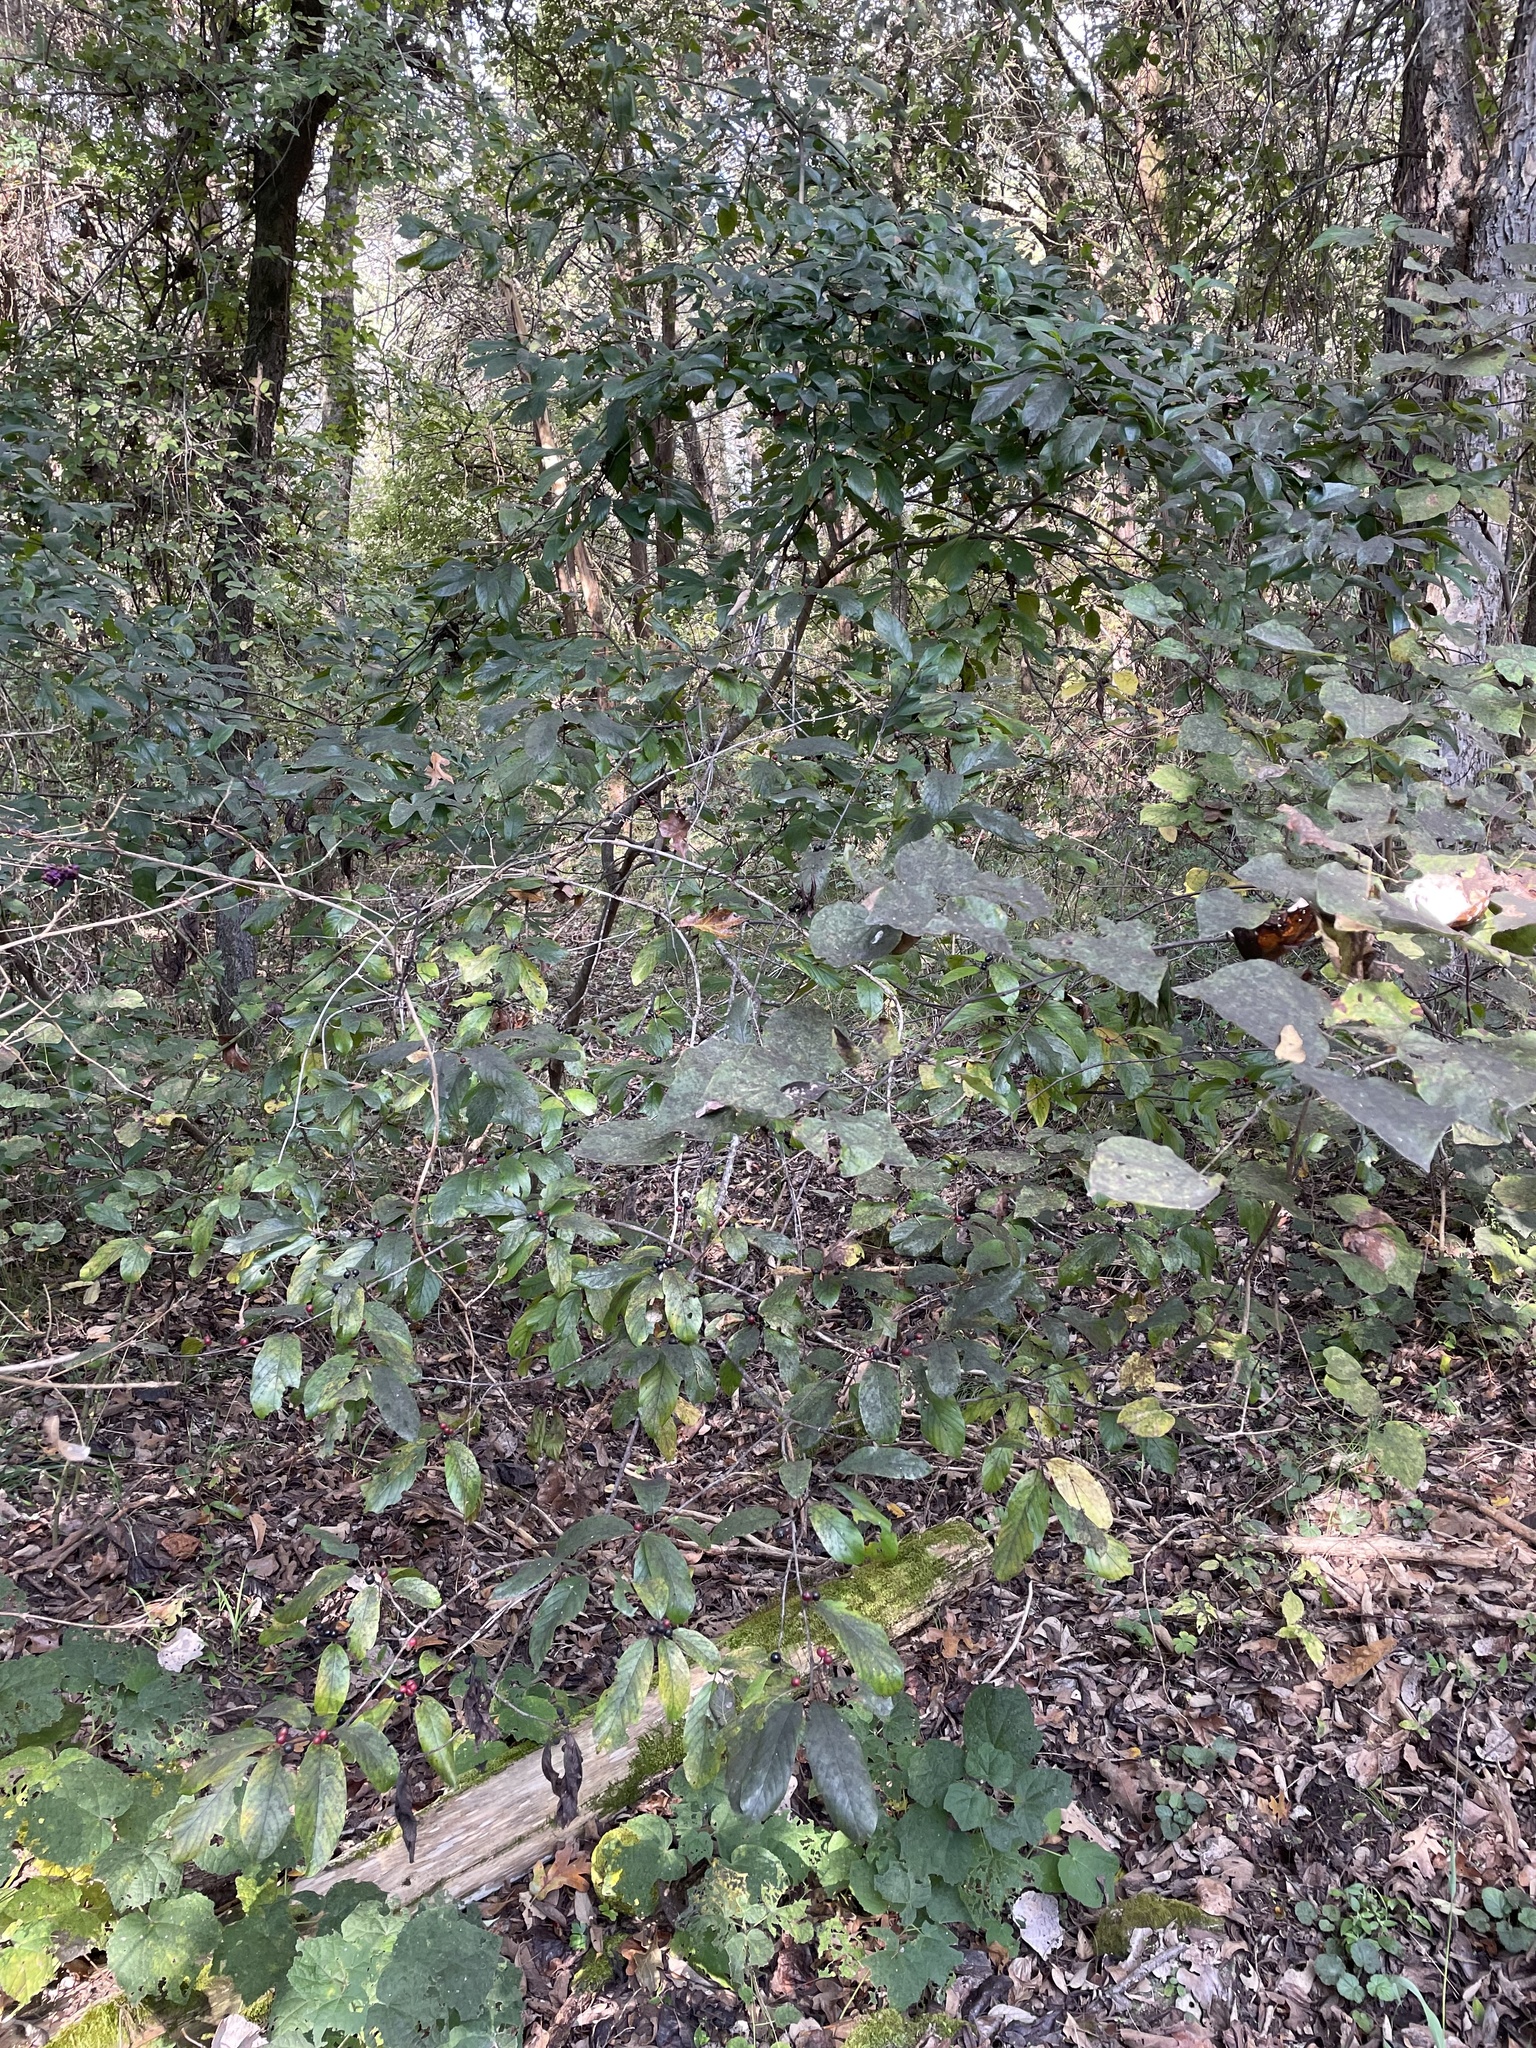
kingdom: Plantae
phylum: Tracheophyta
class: Magnoliopsida
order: Rosales
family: Rhamnaceae
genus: Frangula
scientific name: Frangula caroliniana
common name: Carolina buckthorn
